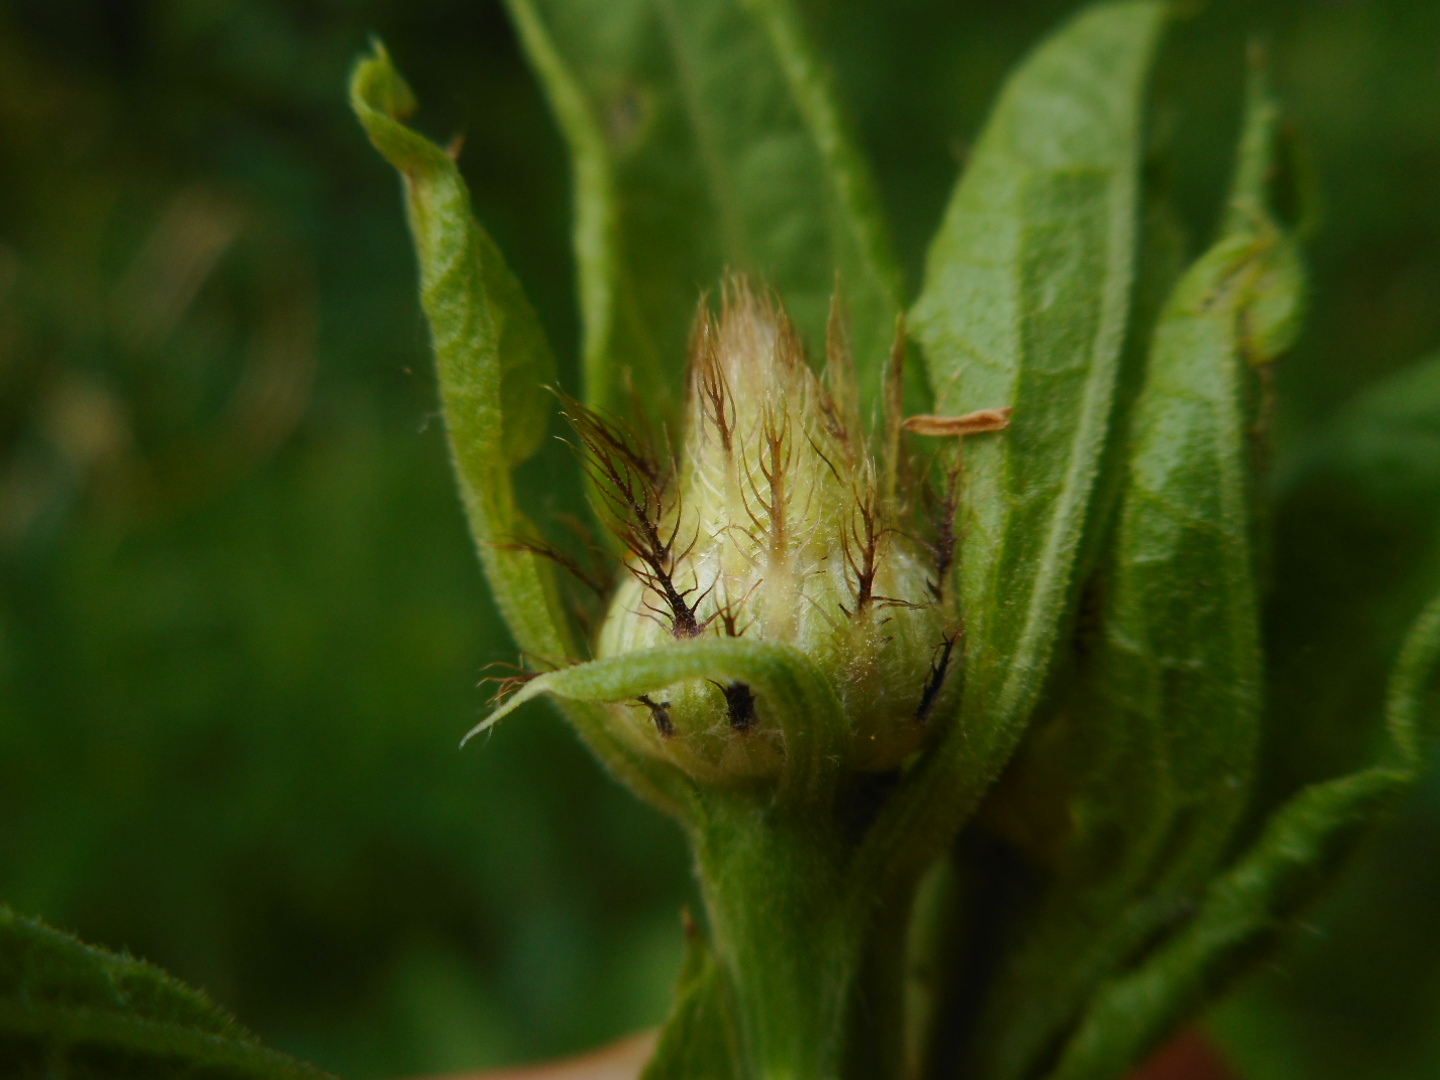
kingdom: Plantae
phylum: Tracheophyta
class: Magnoliopsida
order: Asterales
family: Asteraceae
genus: Centaurea
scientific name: Centaurea phrygia
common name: Wig knapweed
